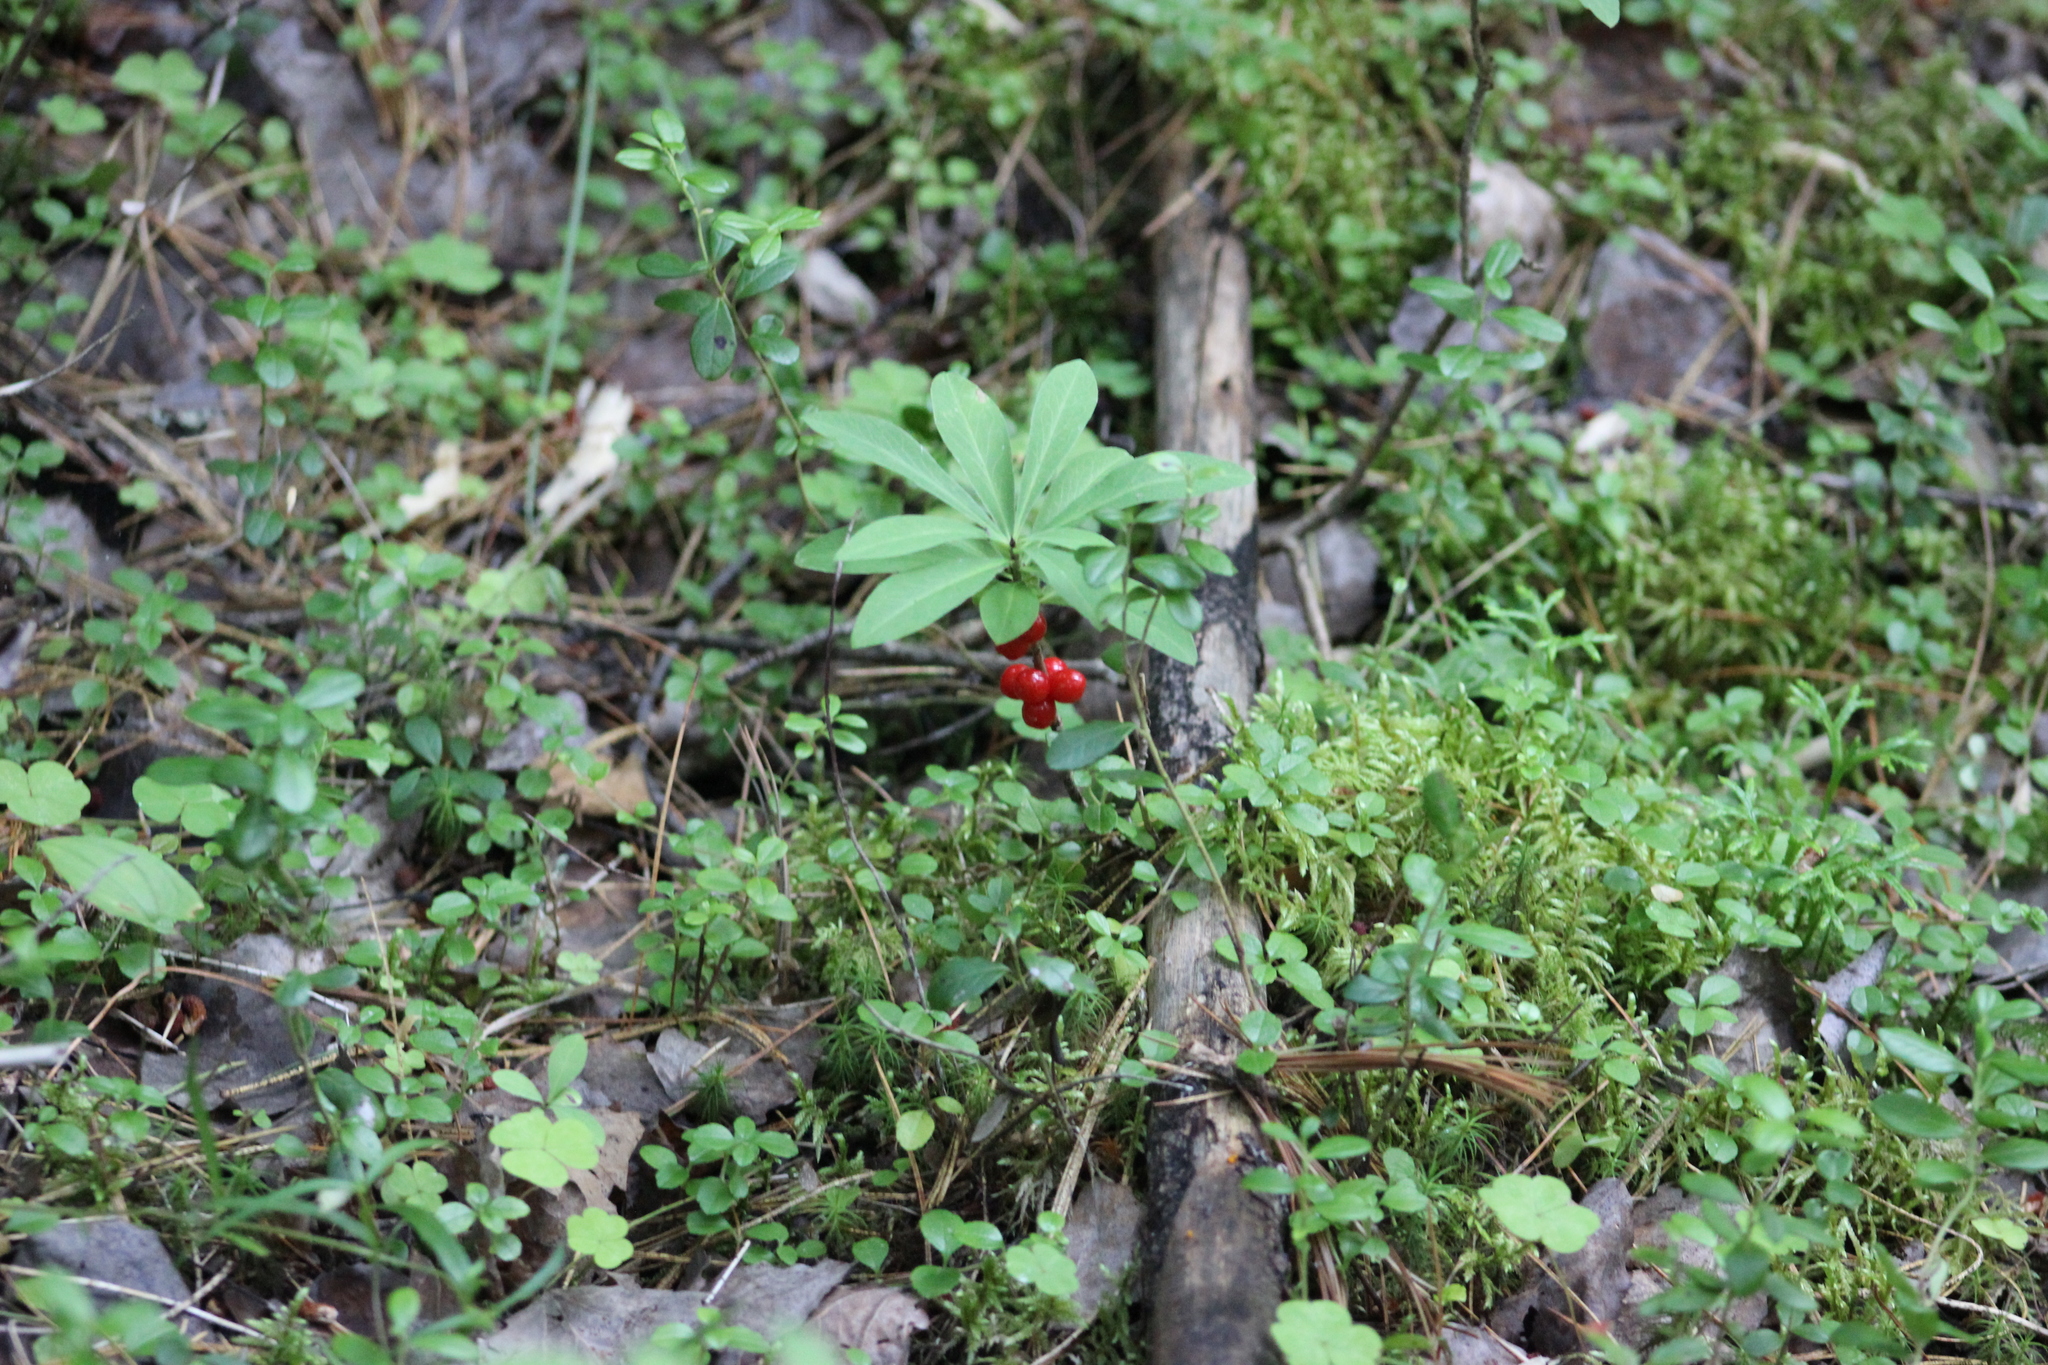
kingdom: Plantae
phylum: Tracheophyta
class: Magnoliopsida
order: Malvales
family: Thymelaeaceae
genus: Daphne
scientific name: Daphne mezereum
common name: Mezereon
